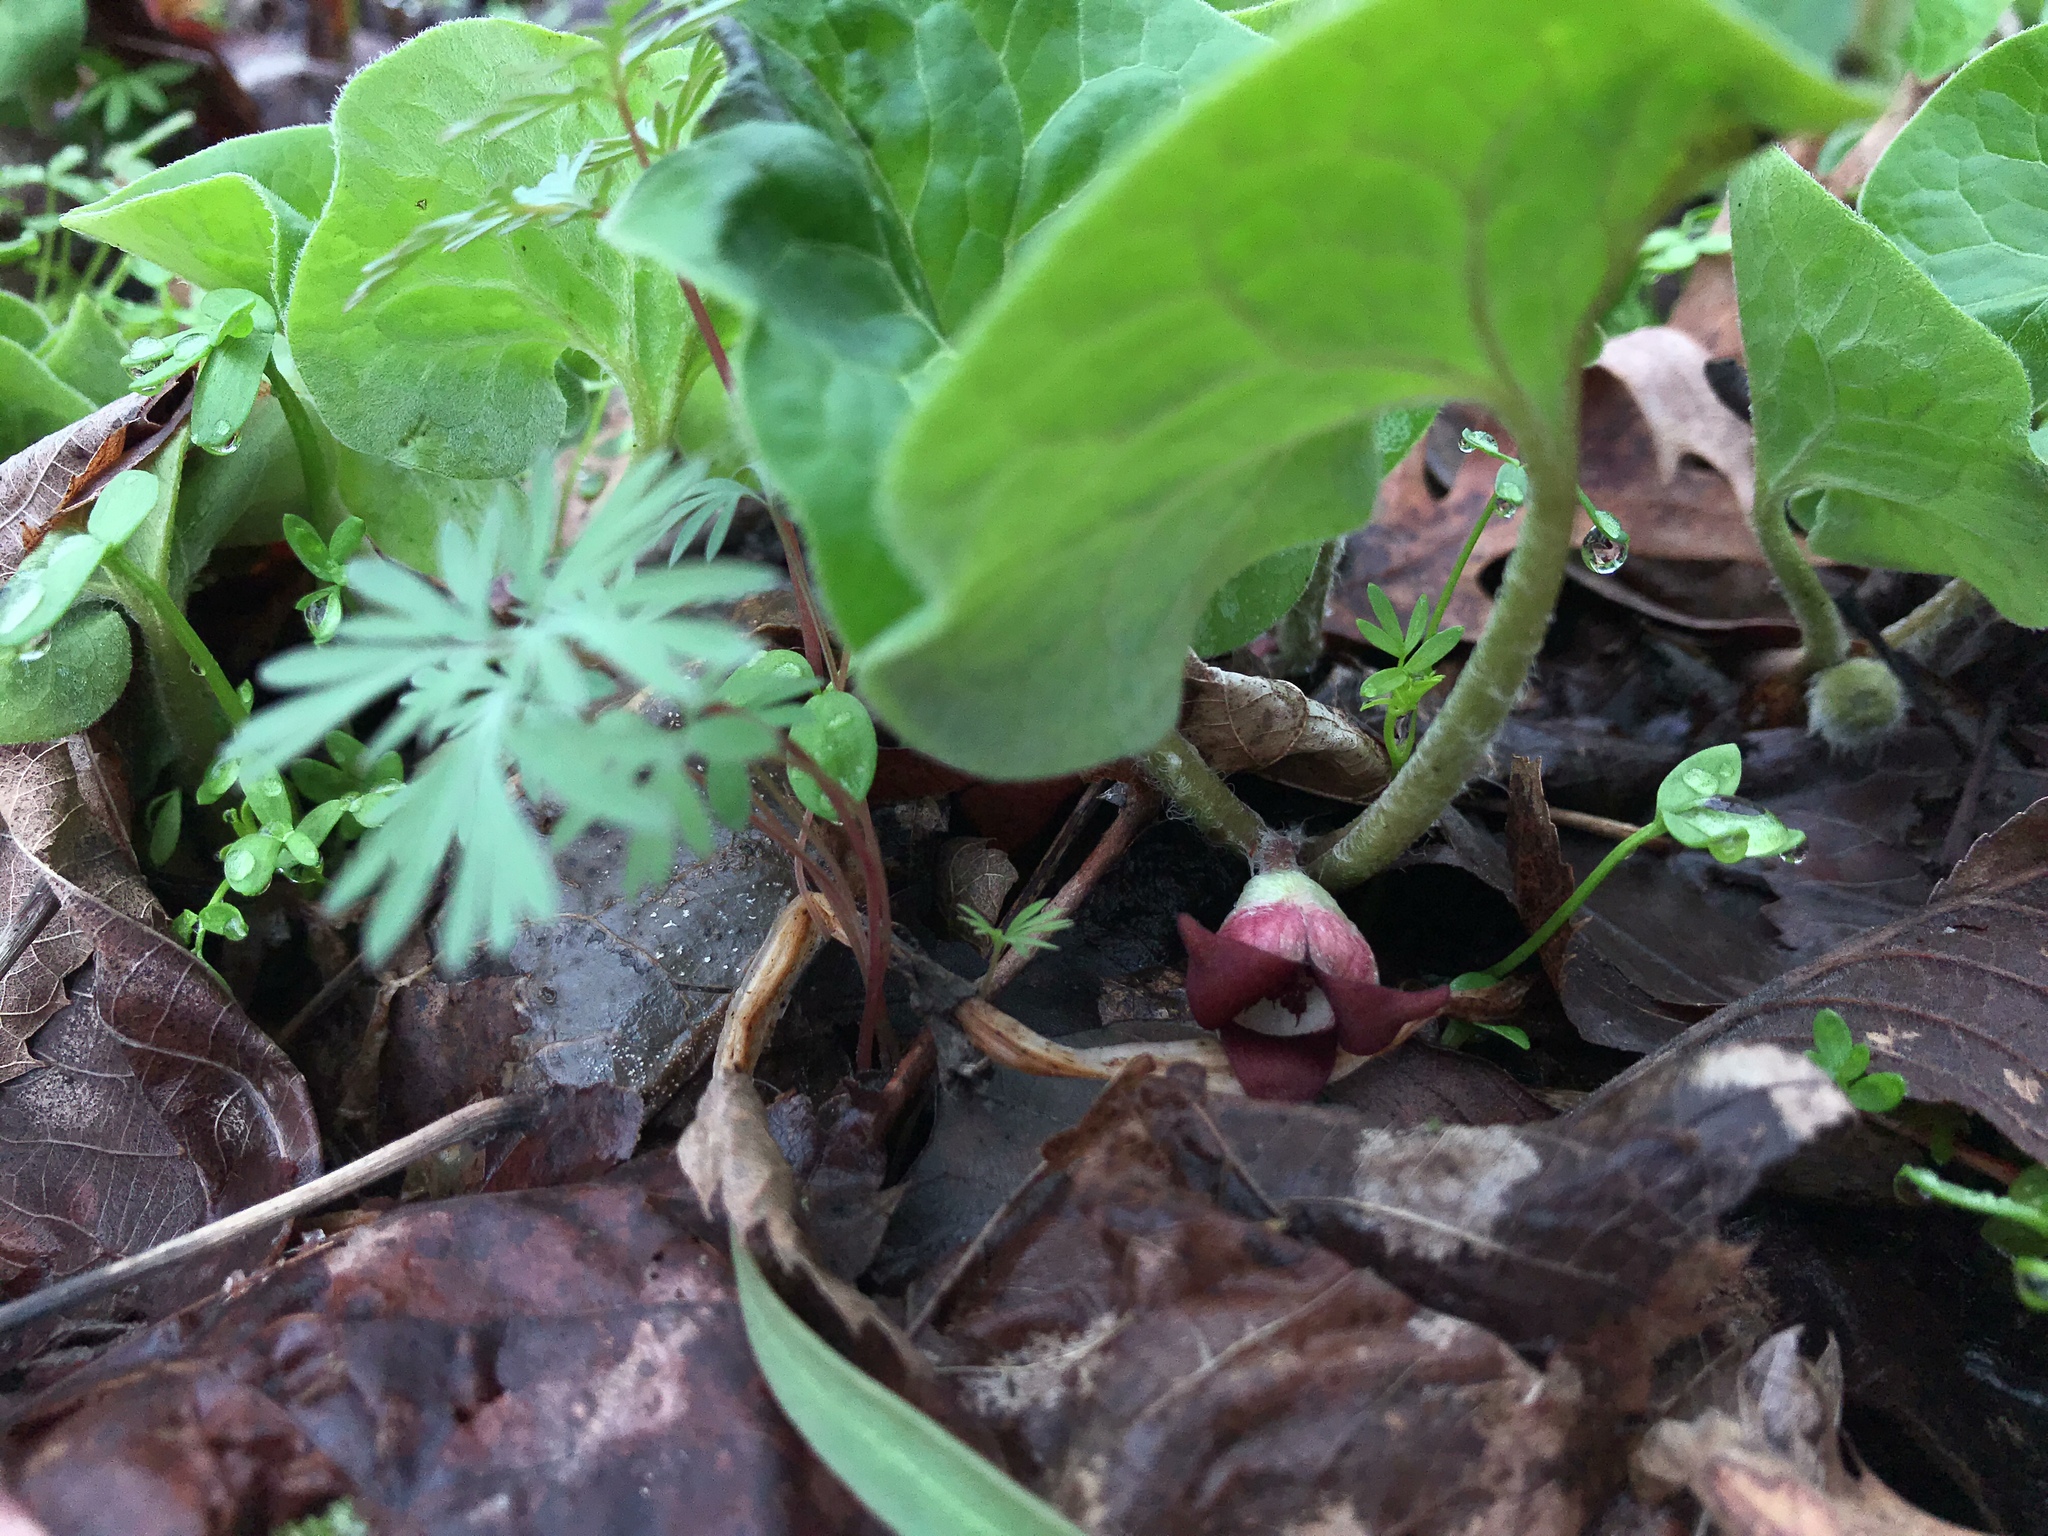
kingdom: Plantae
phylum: Tracheophyta
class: Magnoliopsida
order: Piperales
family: Aristolochiaceae
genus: Asarum
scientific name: Asarum canadense
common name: Wild ginger
